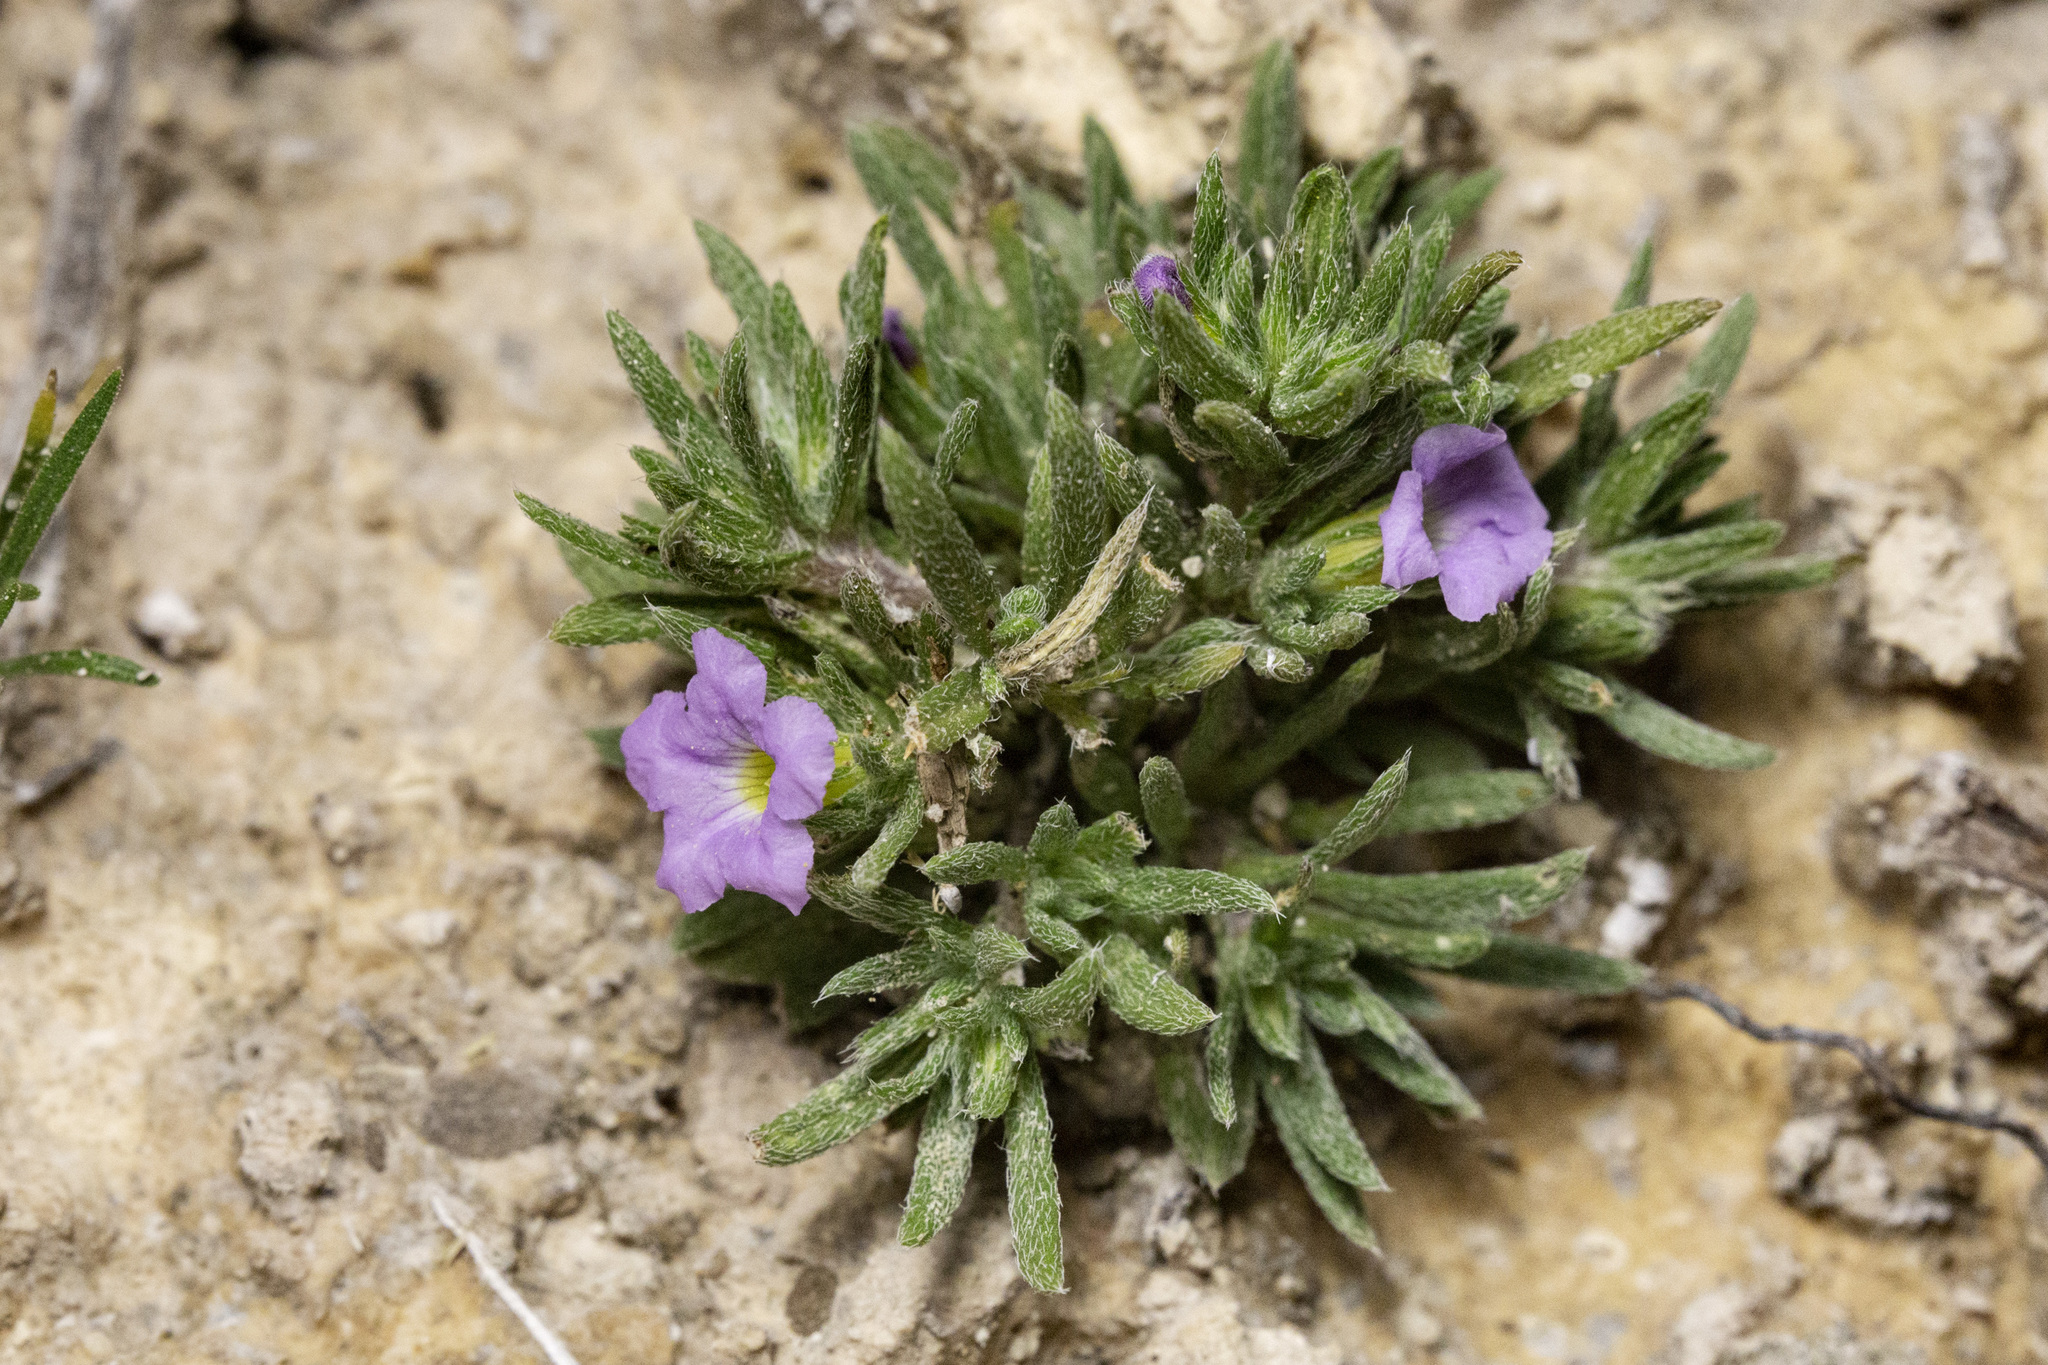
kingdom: Plantae
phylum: Tracheophyta
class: Magnoliopsida
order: Boraginales
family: Namaceae
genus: Nama
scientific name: Nama stevensii
